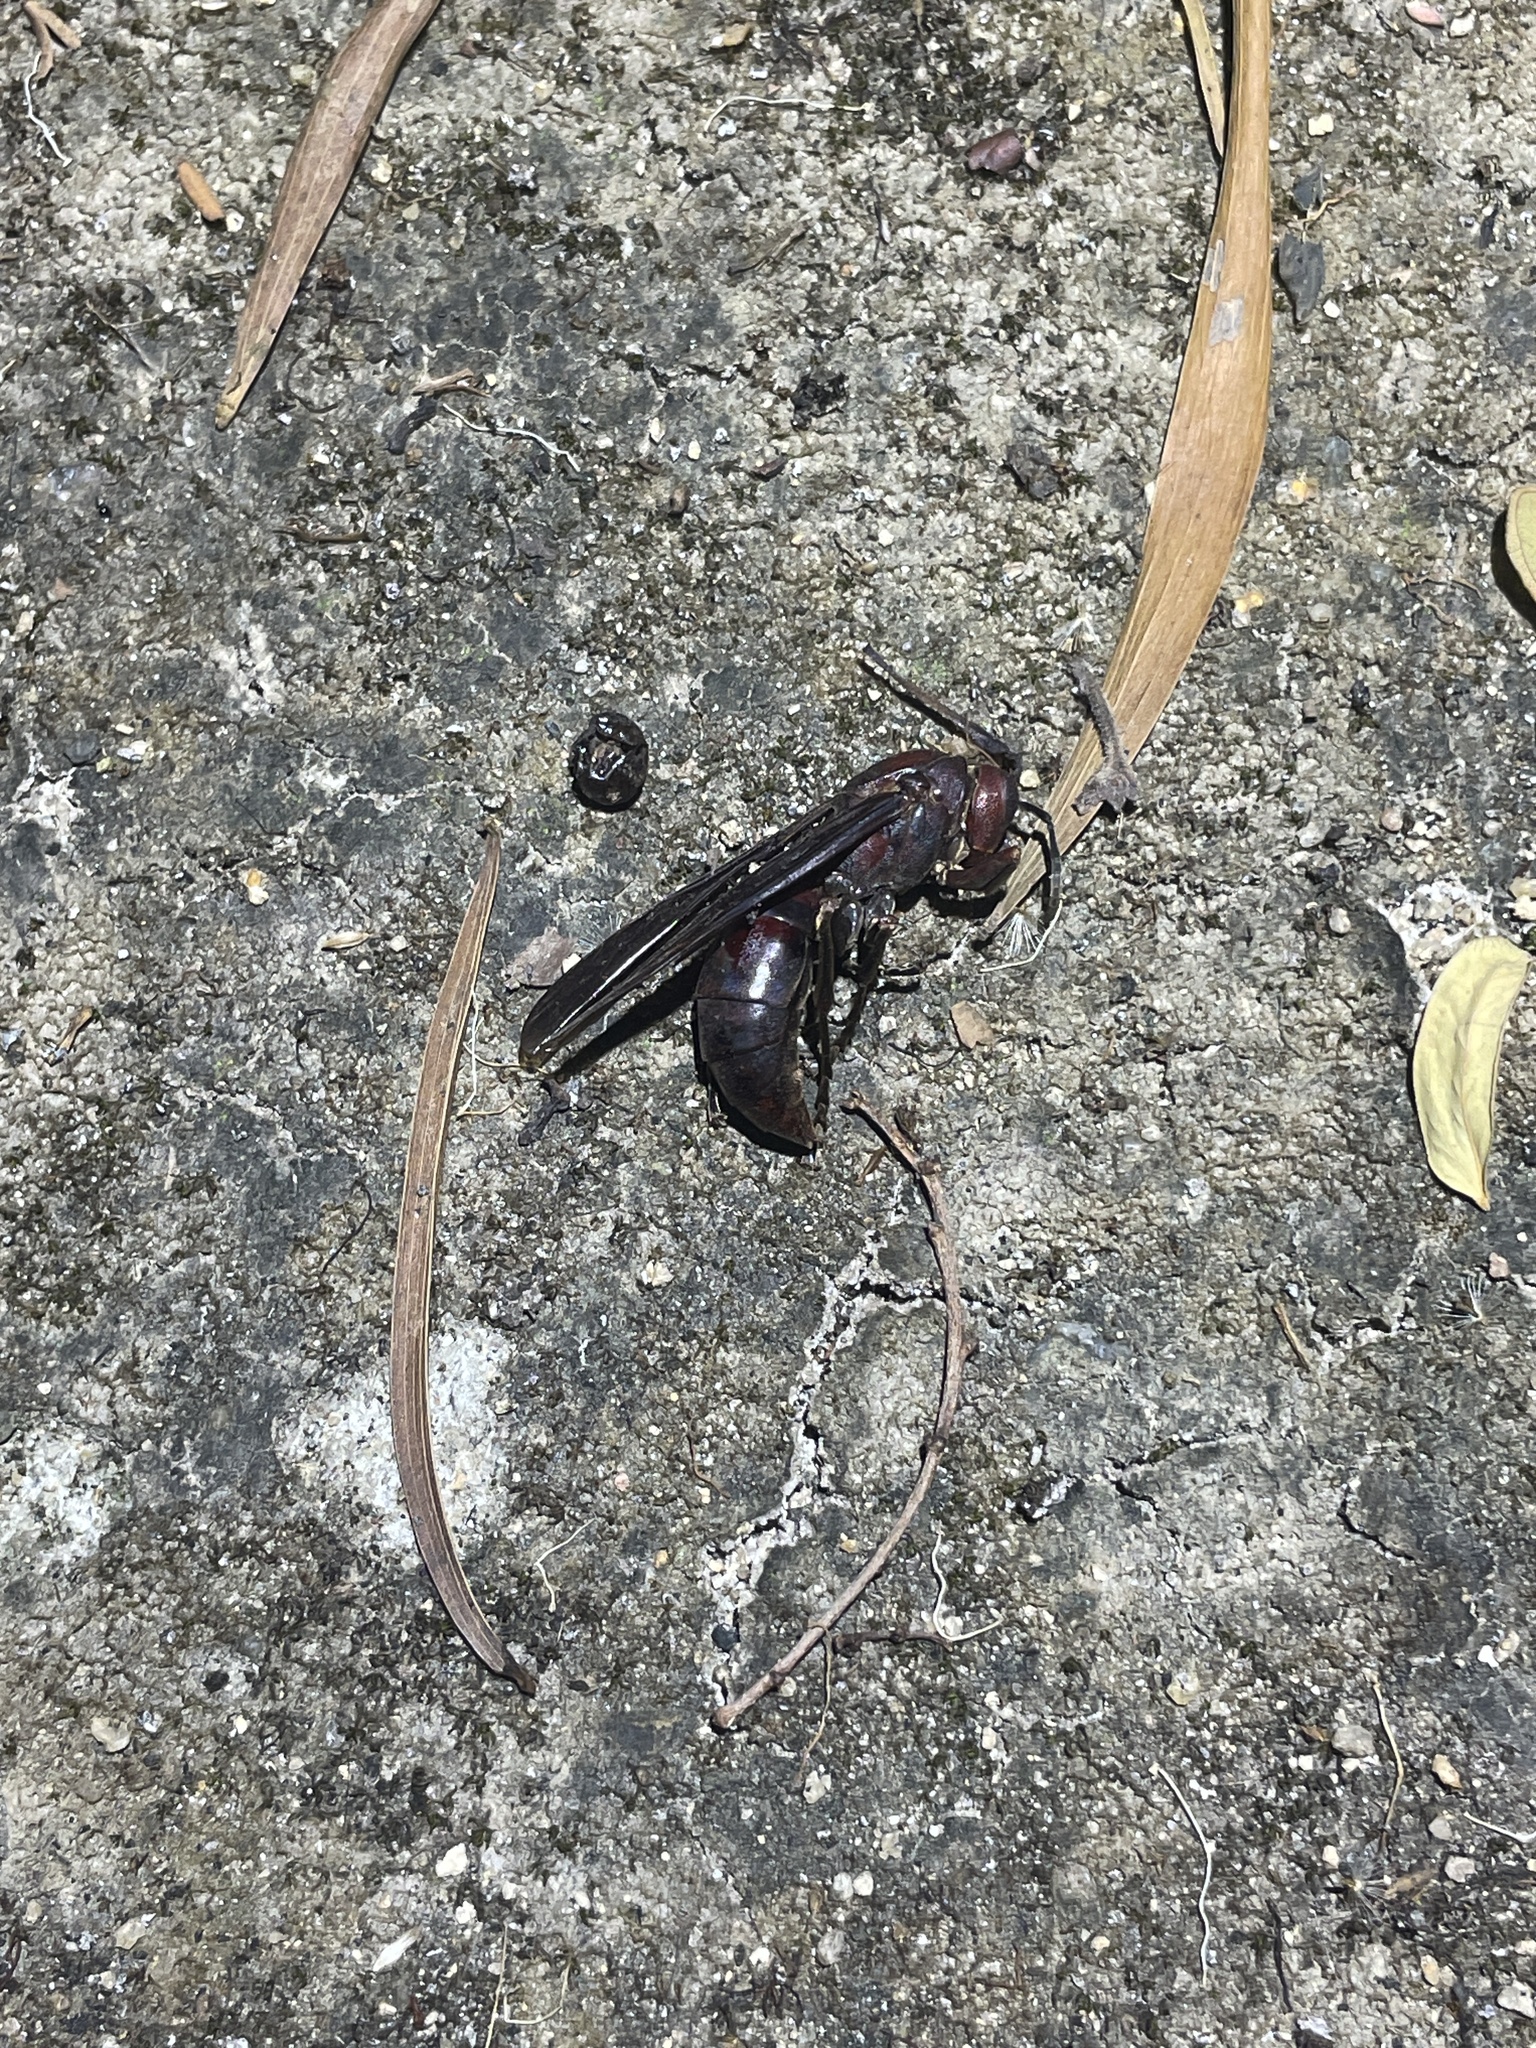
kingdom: Animalia
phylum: Arthropoda
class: Insecta
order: Hymenoptera
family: Eumenidae
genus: Polistes
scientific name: Polistes gigas
